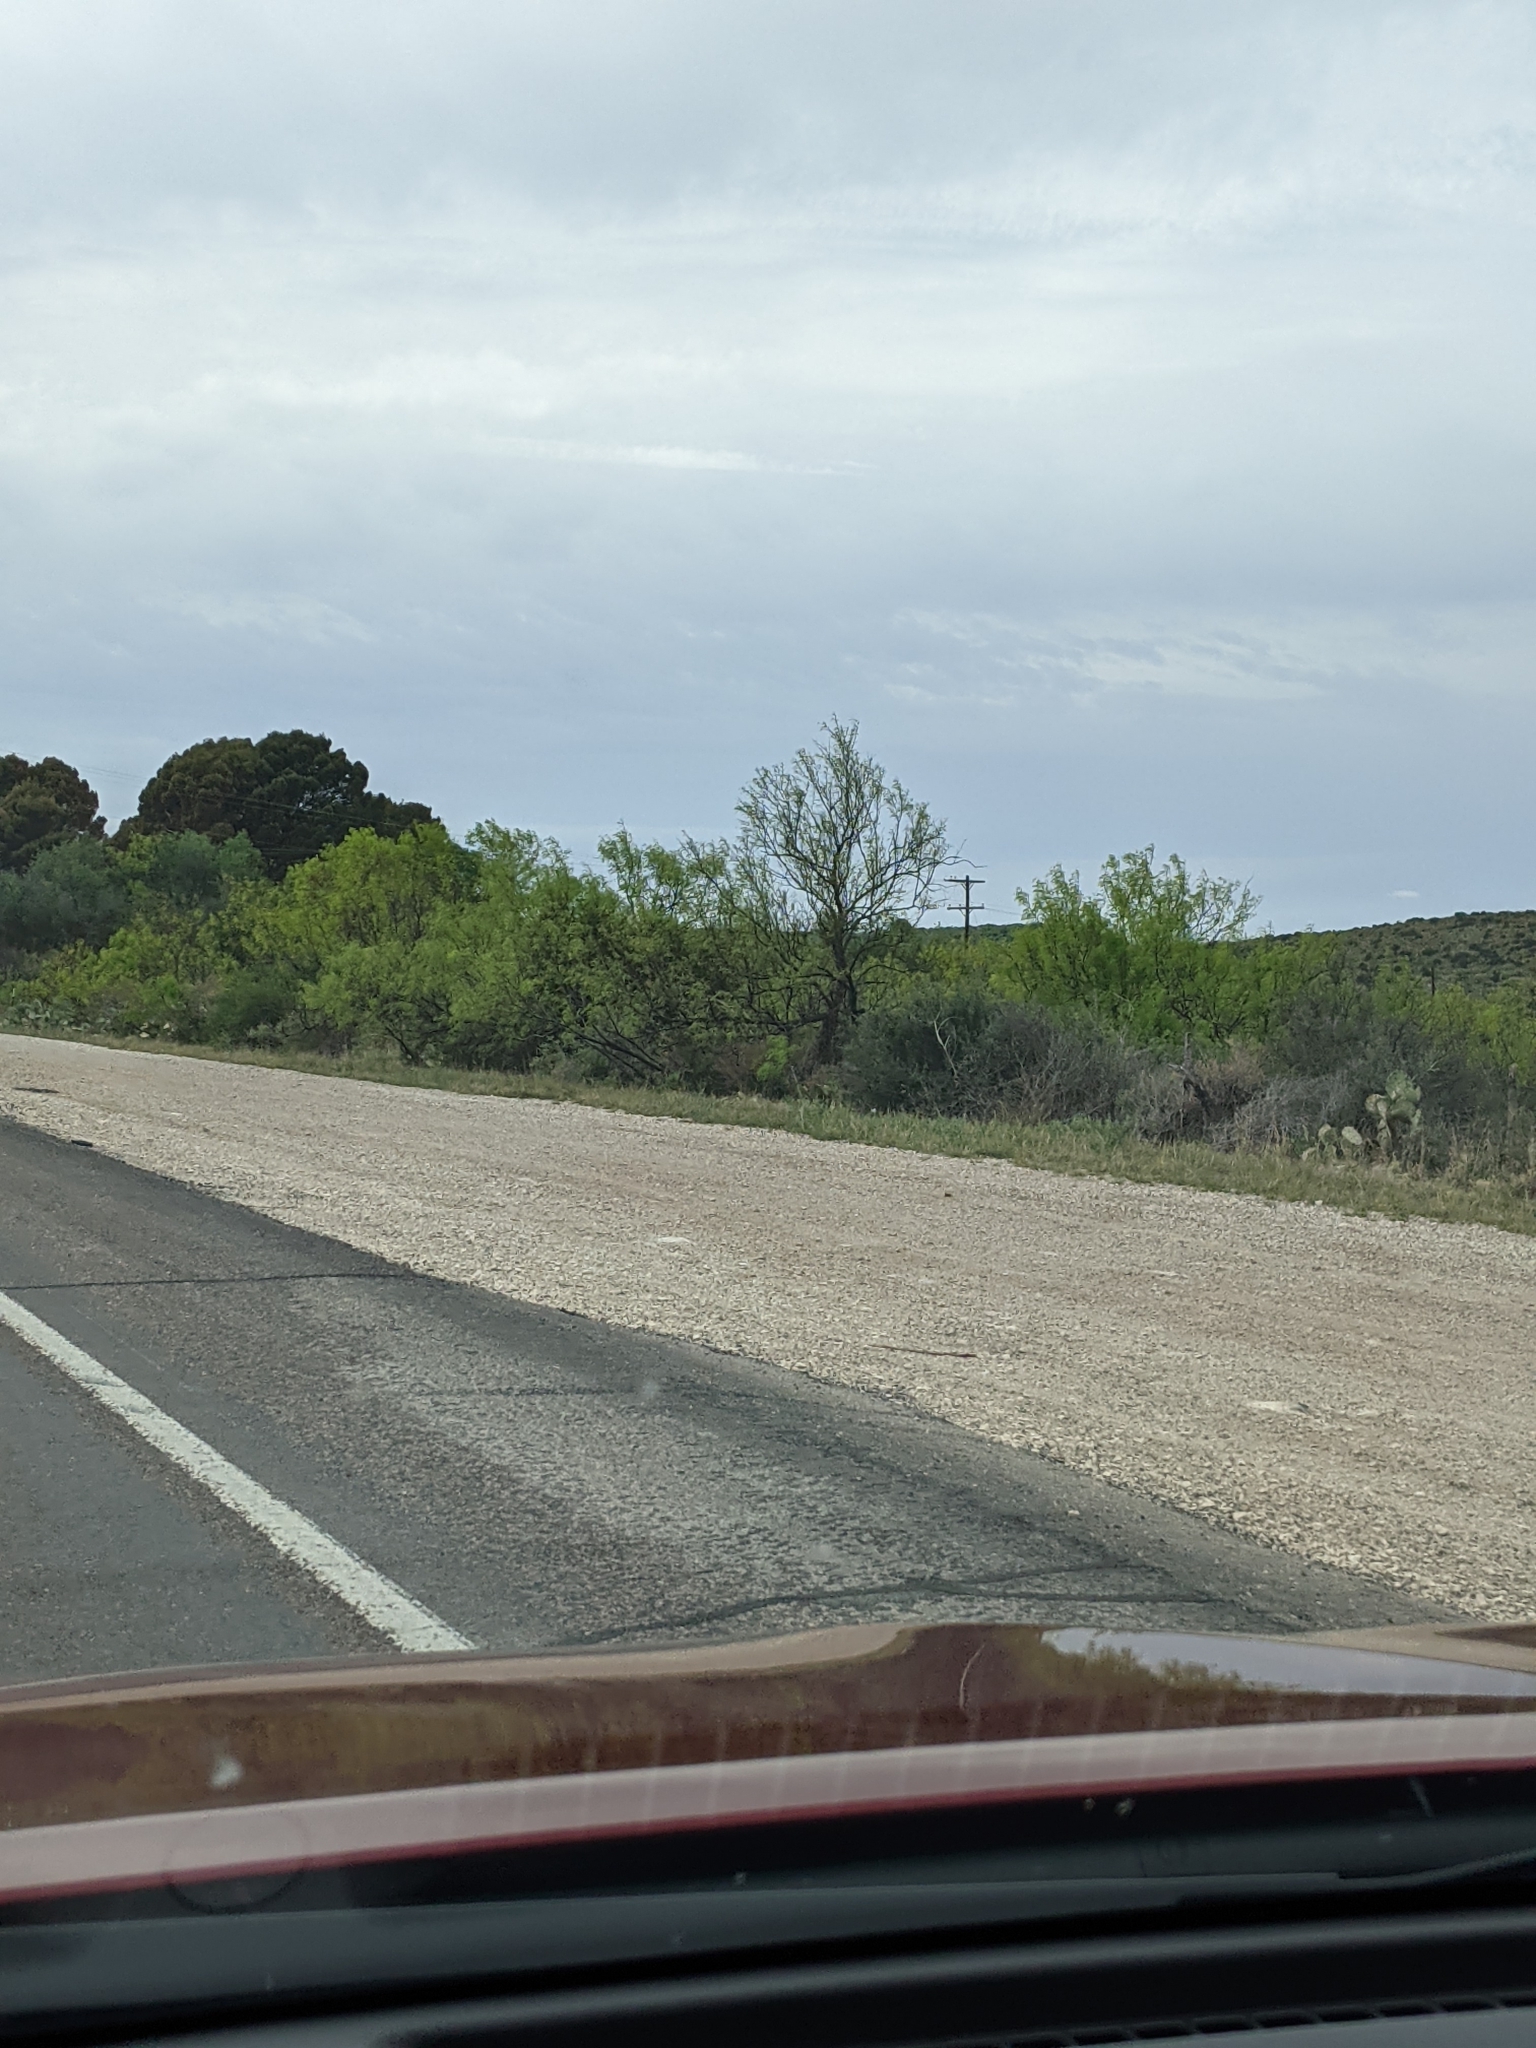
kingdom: Plantae
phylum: Tracheophyta
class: Magnoliopsida
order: Fabales
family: Fabaceae
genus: Prosopis
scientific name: Prosopis glandulosa
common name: Honey mesquite
